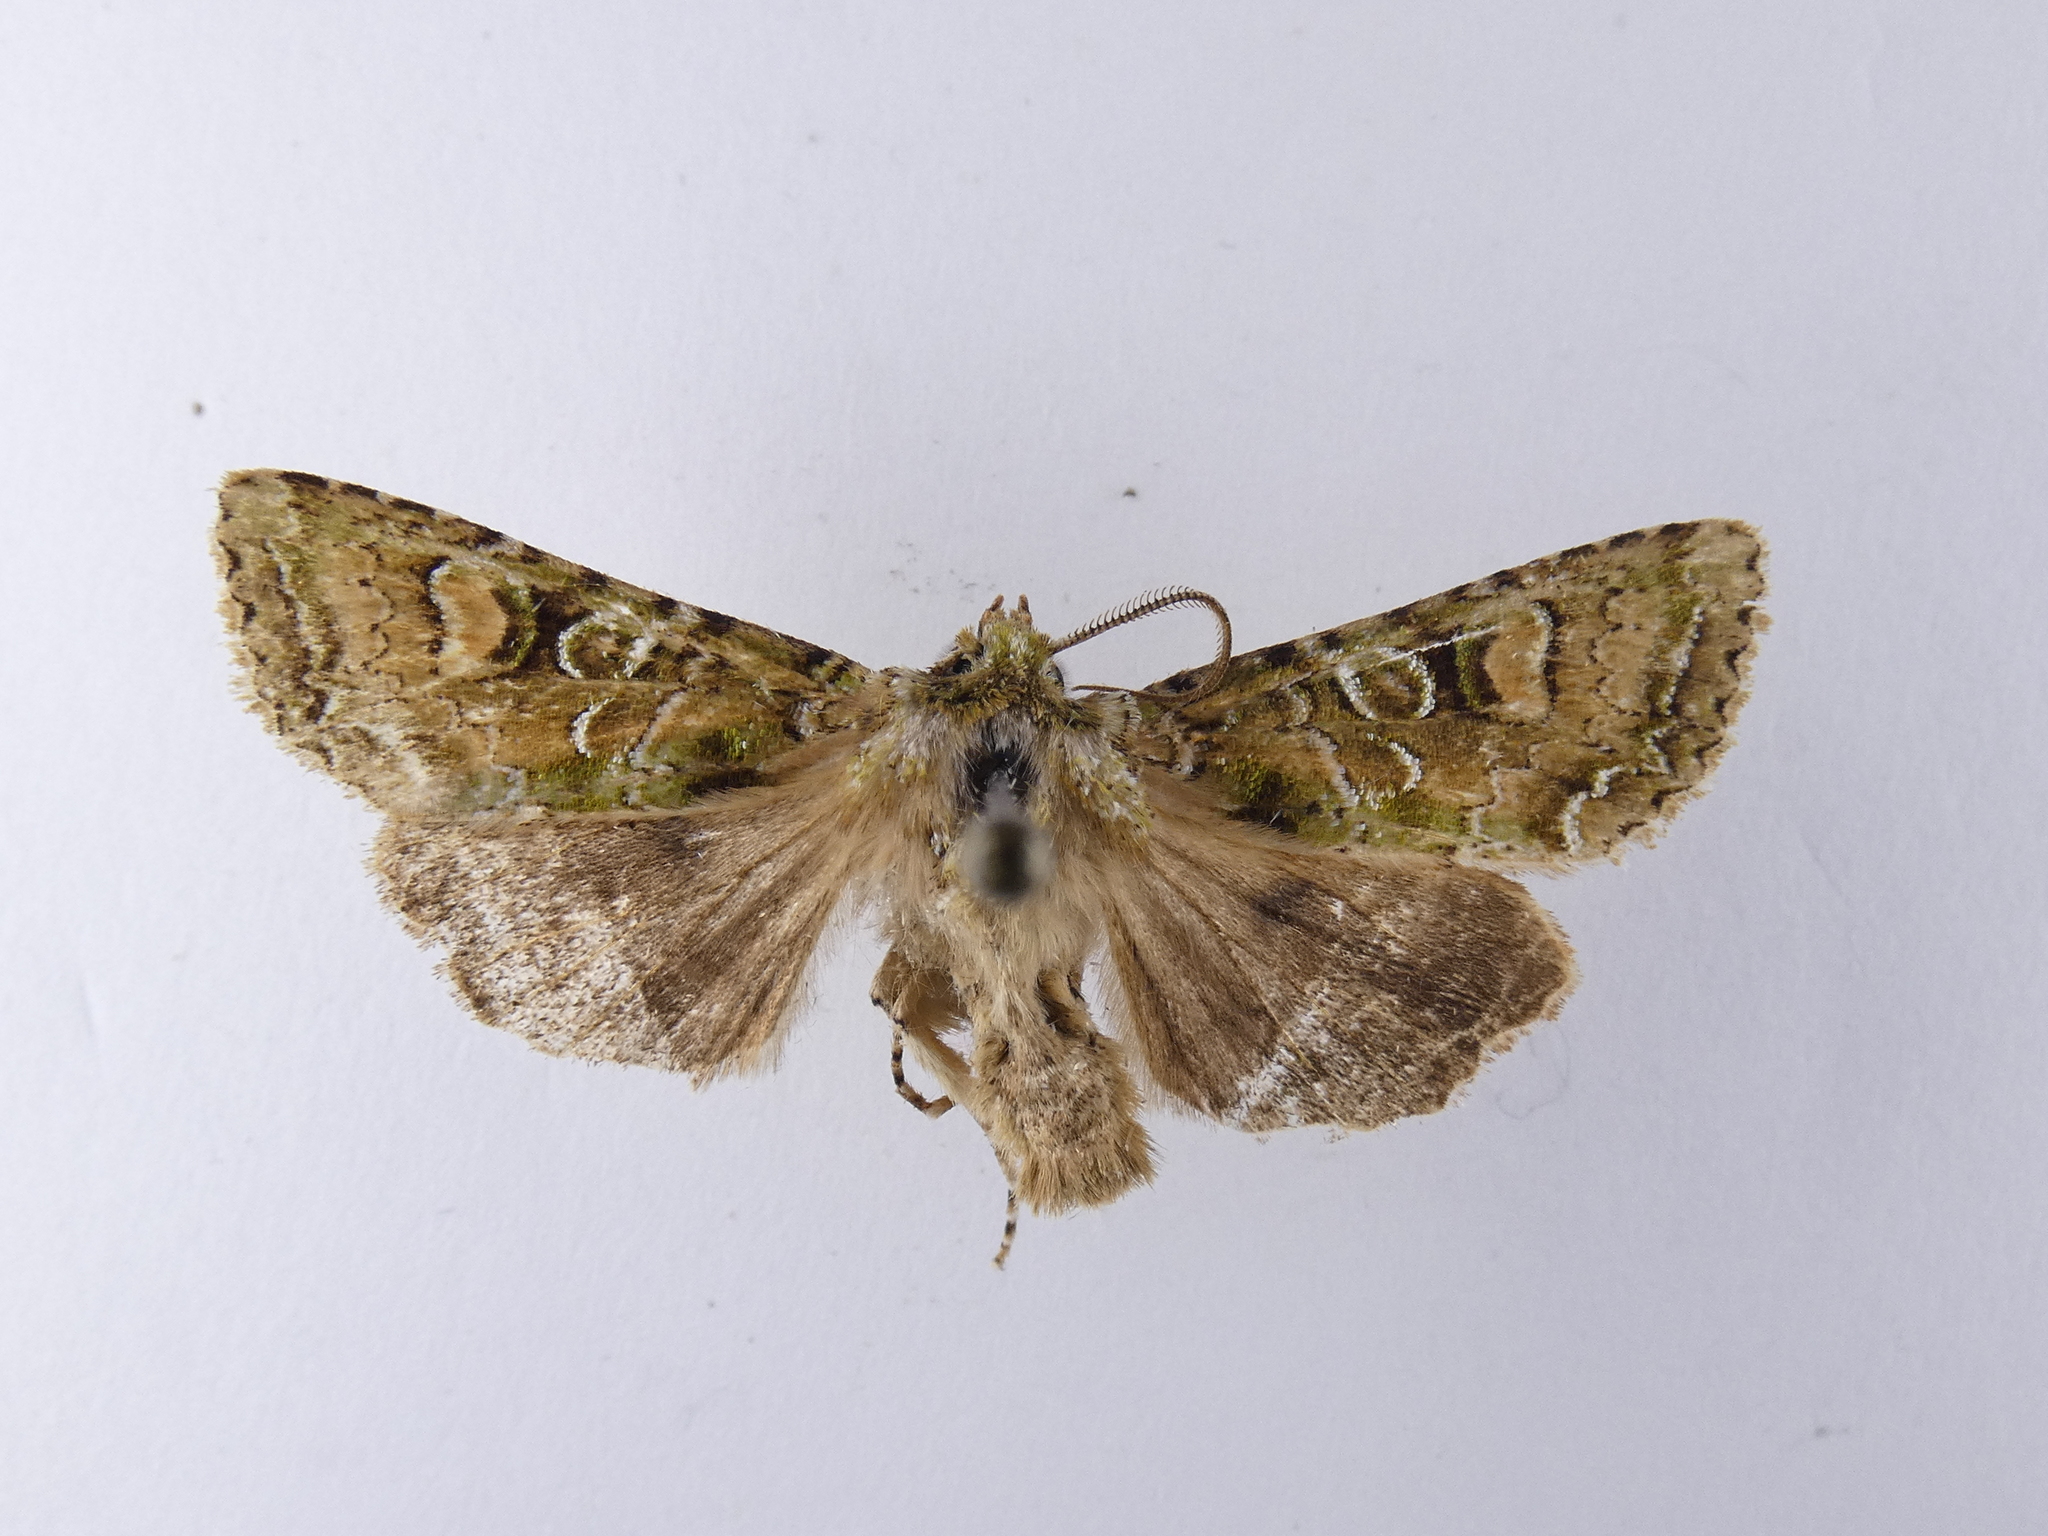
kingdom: Animalia
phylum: Arthropoda
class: Insecta
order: Lepidoptera
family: Noctuidae
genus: Ichneutica
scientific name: Ichneutica
